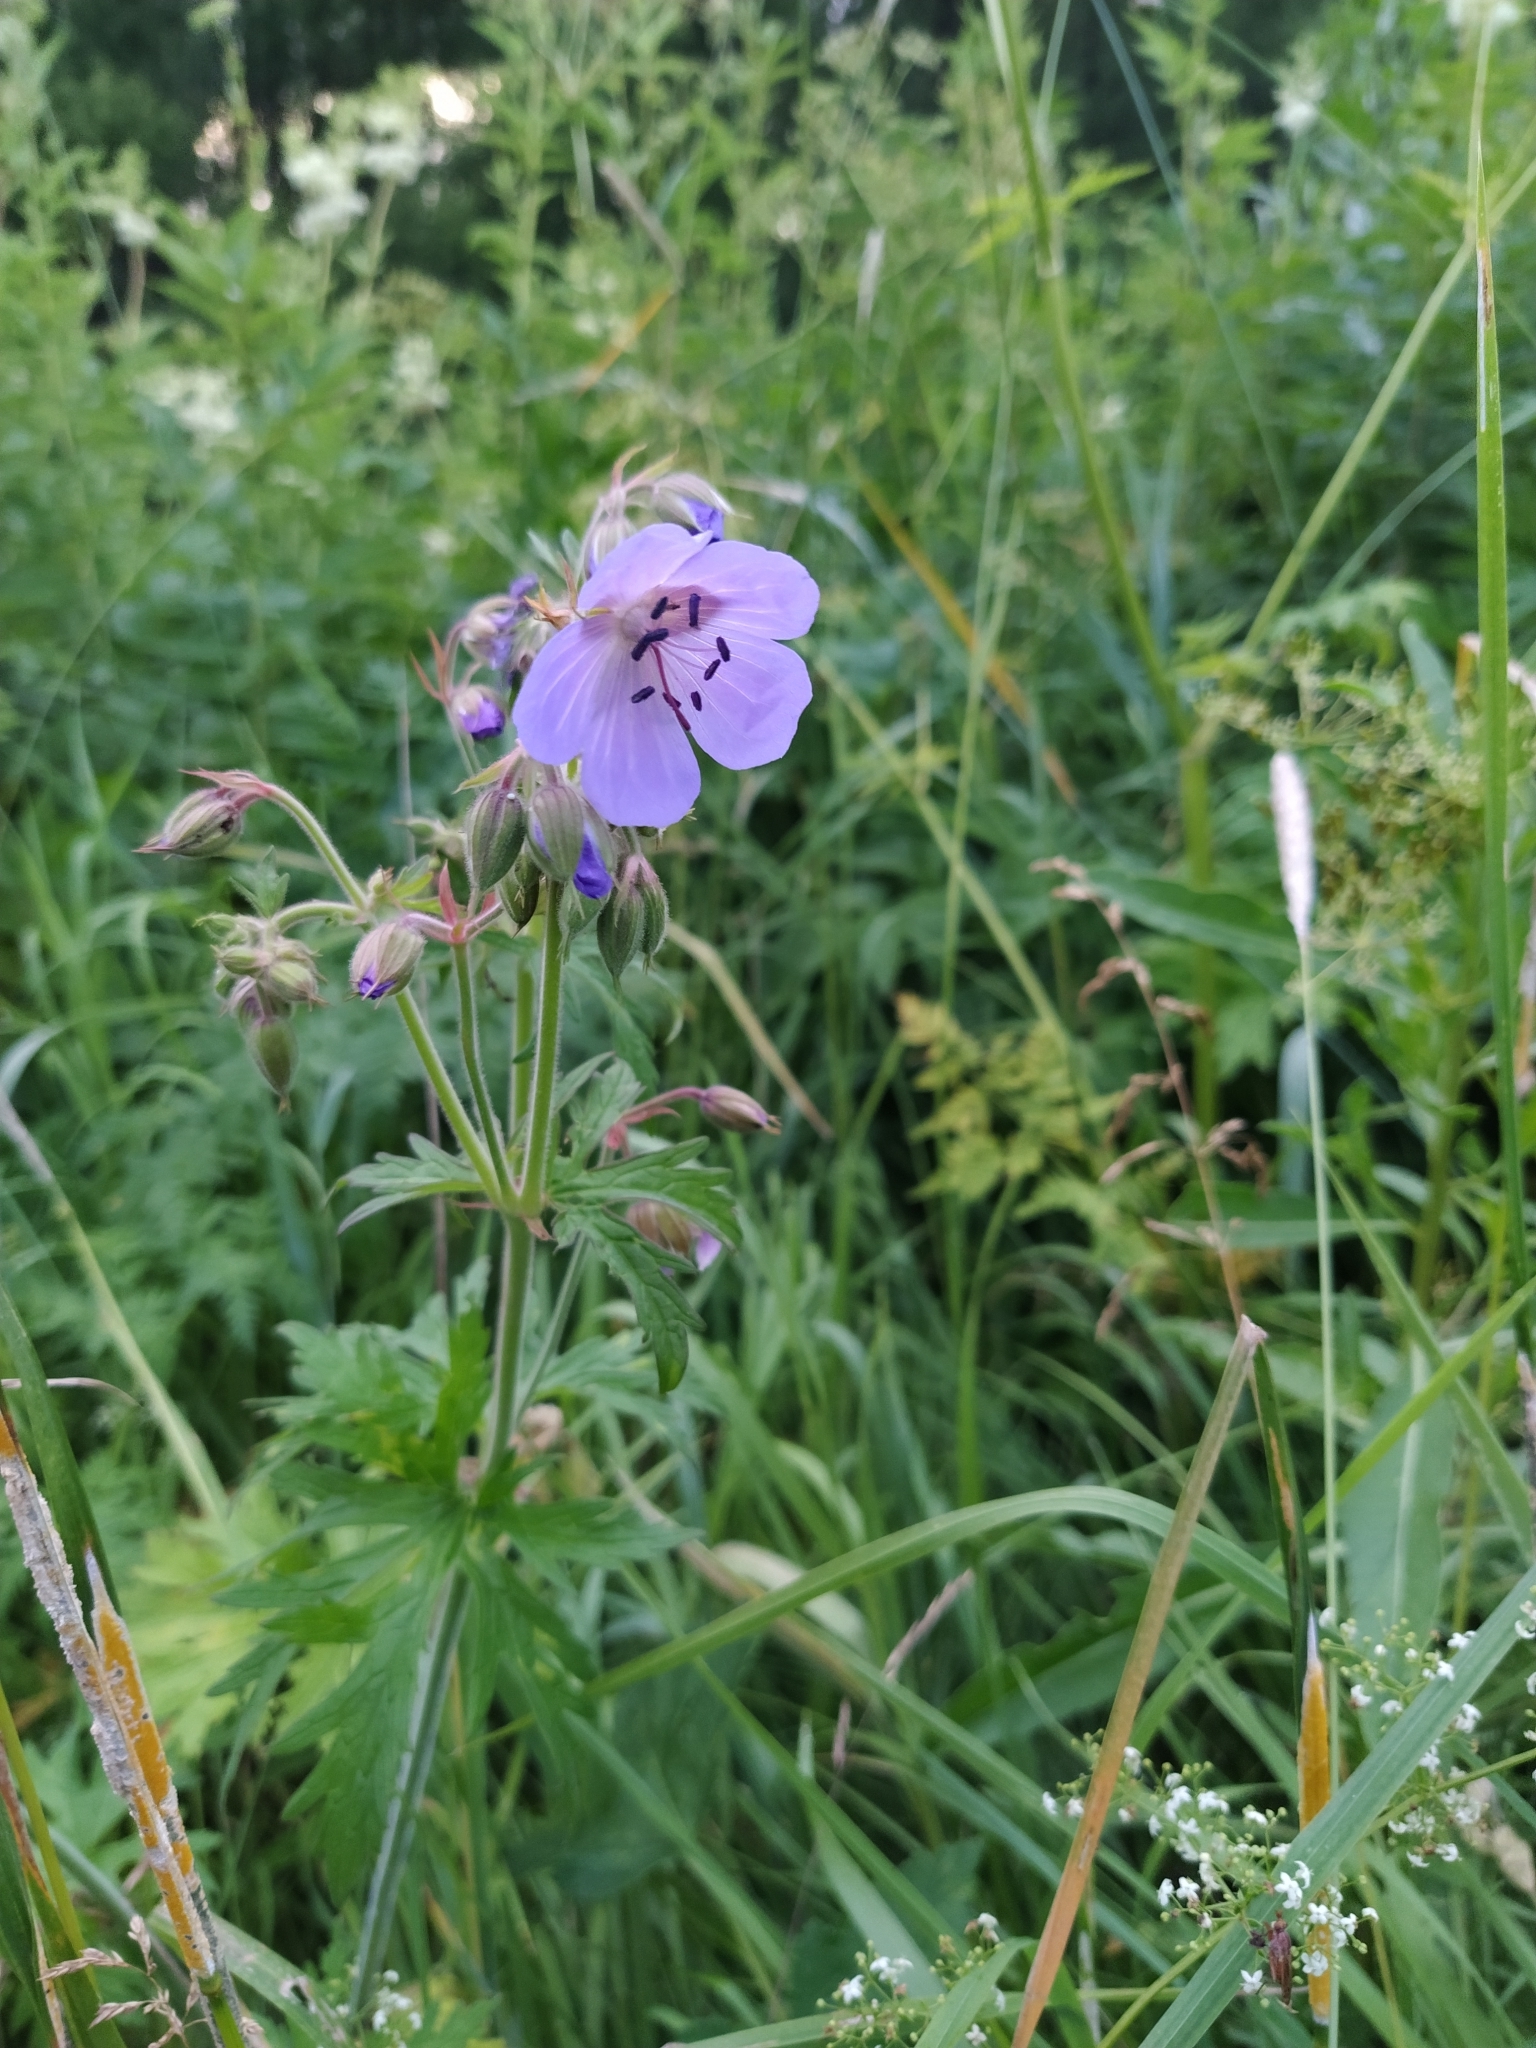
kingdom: Plantae
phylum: Tracheophyta
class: Magnoliopsida
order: Geraniales
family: Geraniaceae
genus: Geranium
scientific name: Geranium pratense
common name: Meadow crane's-bill
